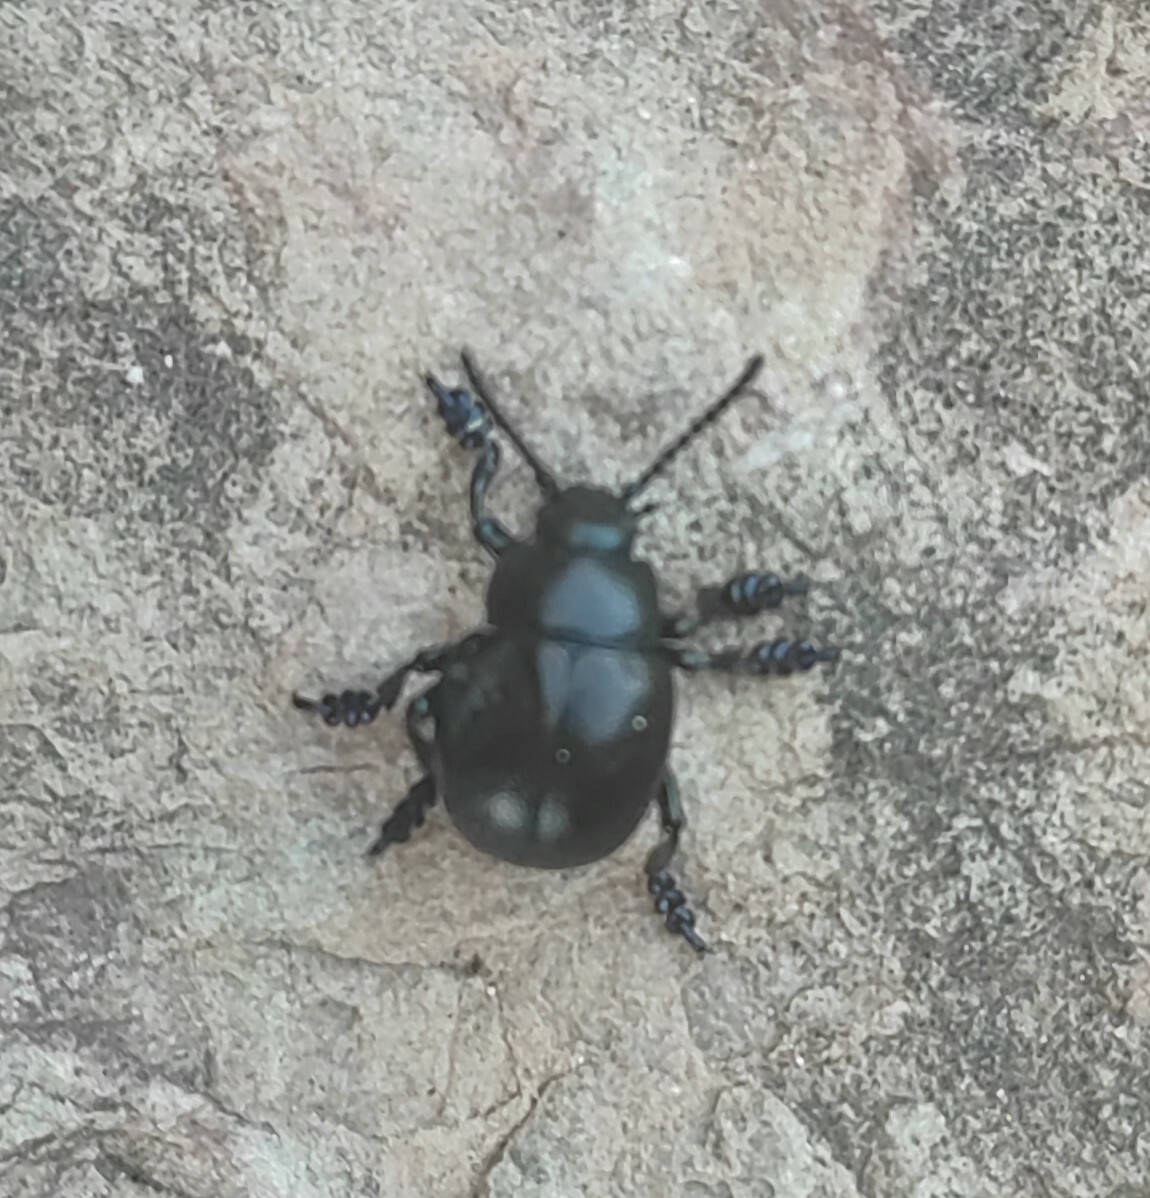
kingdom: Animalia
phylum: Arthropoda
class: Insecta
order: Coleoptera
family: Chrysomelidae
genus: Timarcha
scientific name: Timarcha tenebricosa
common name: Bloody-nosed beetle
